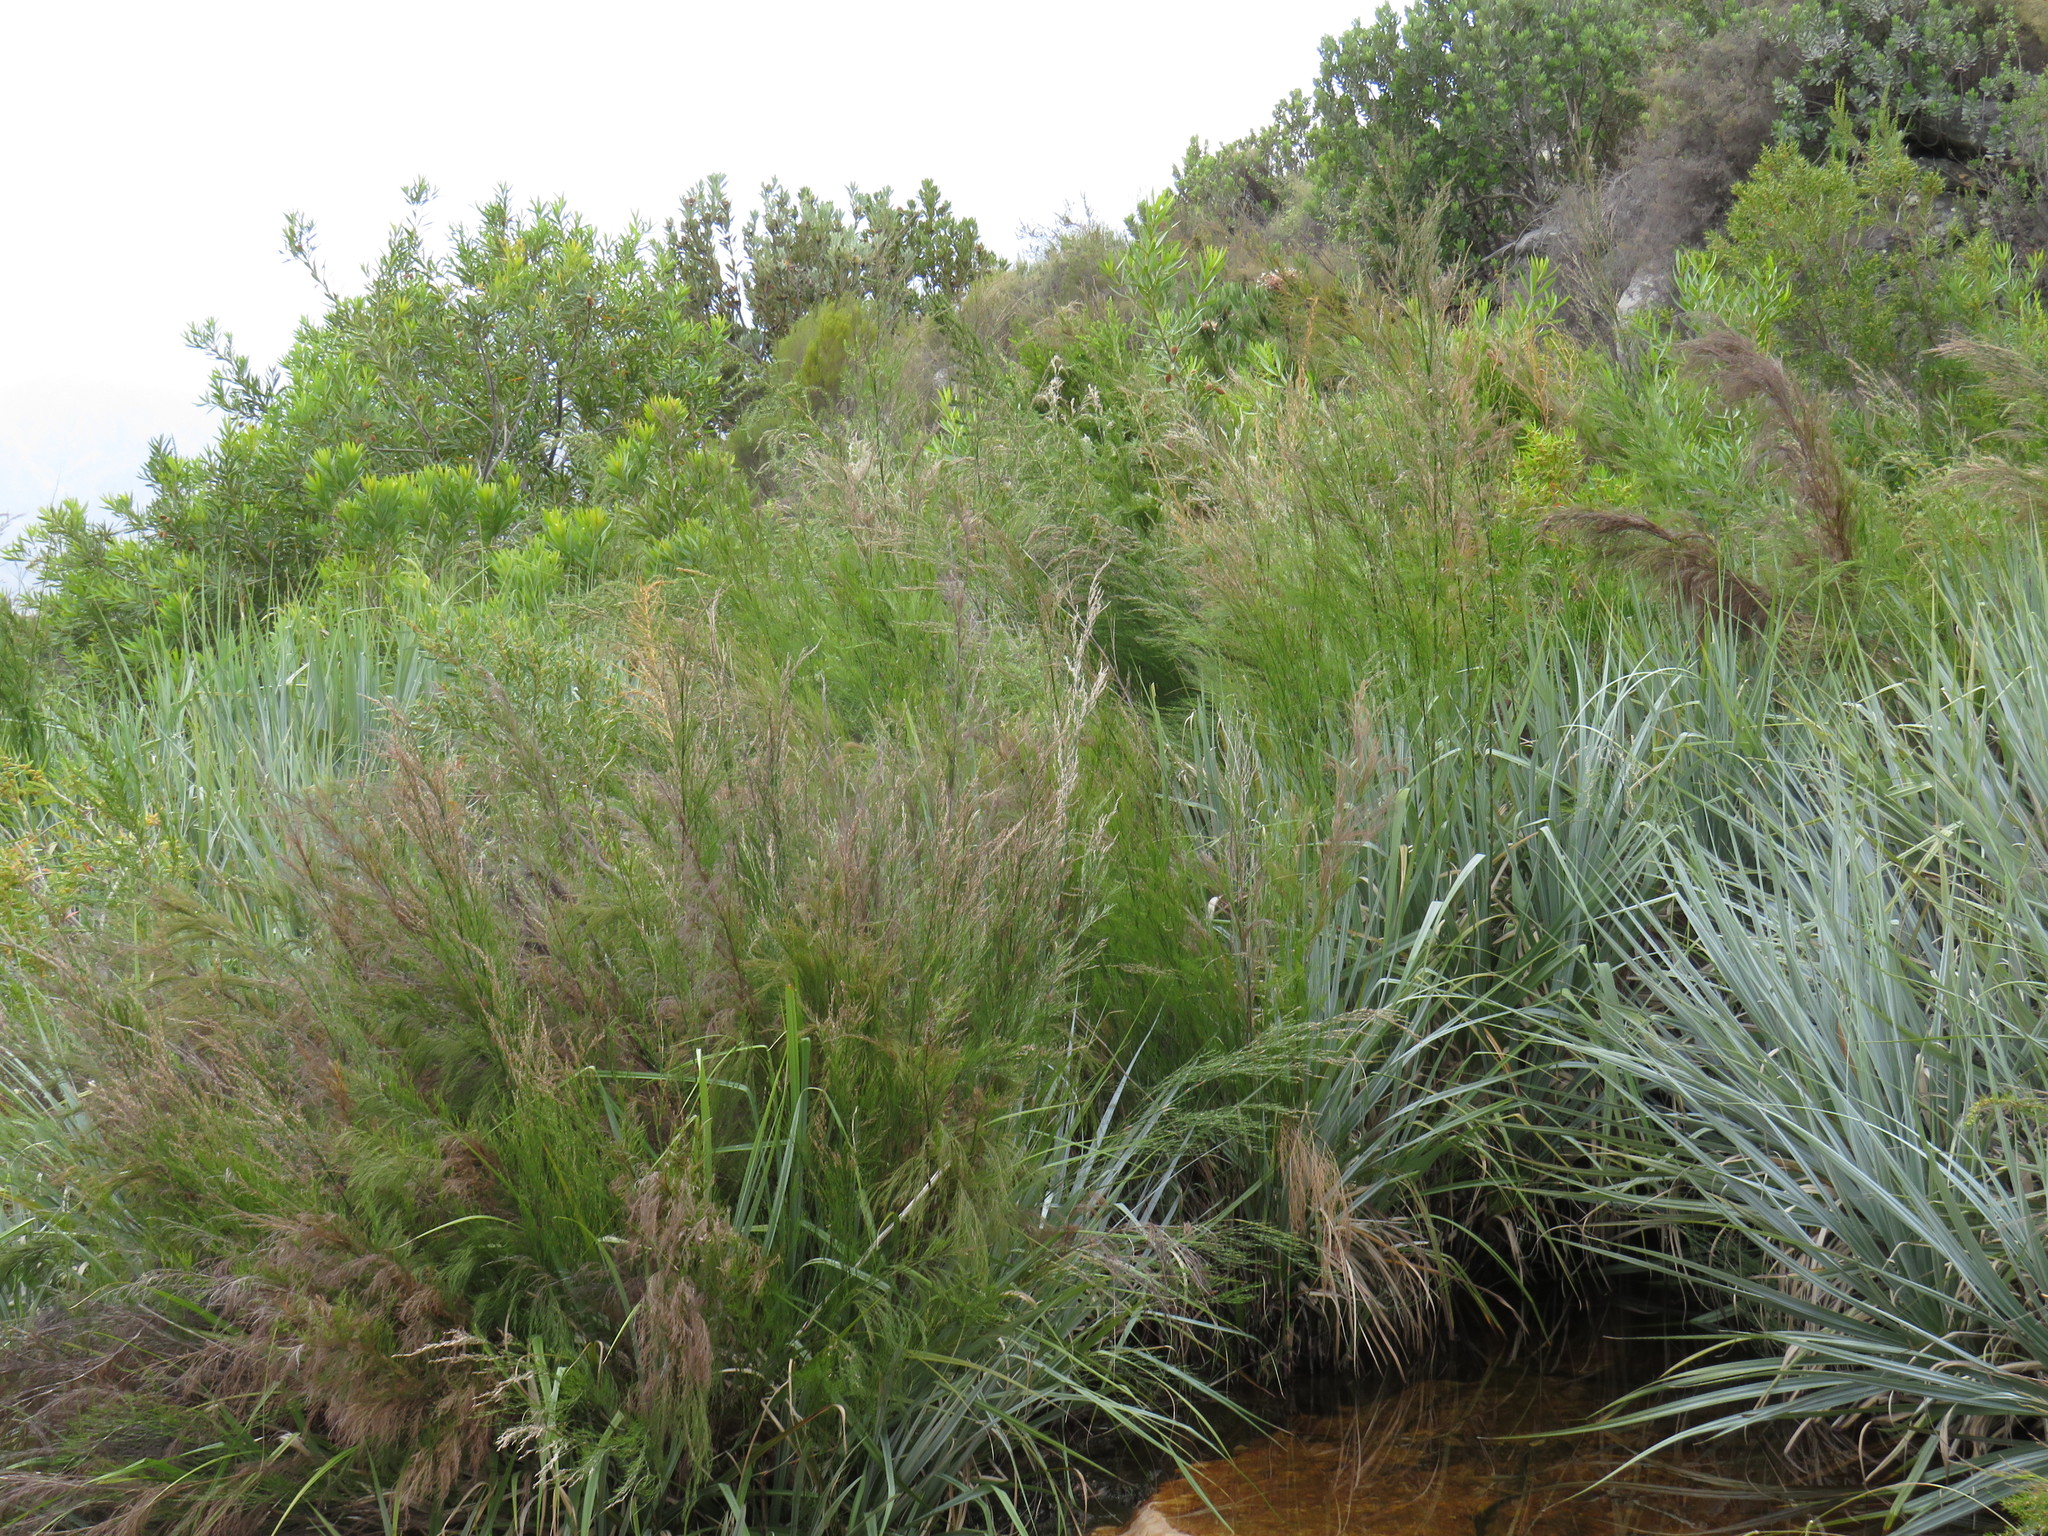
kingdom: Plantae
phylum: Tracheophyta
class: Liliopsida
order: Poales
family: Restionaceae
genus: Restio
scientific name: Restio paniculatus
